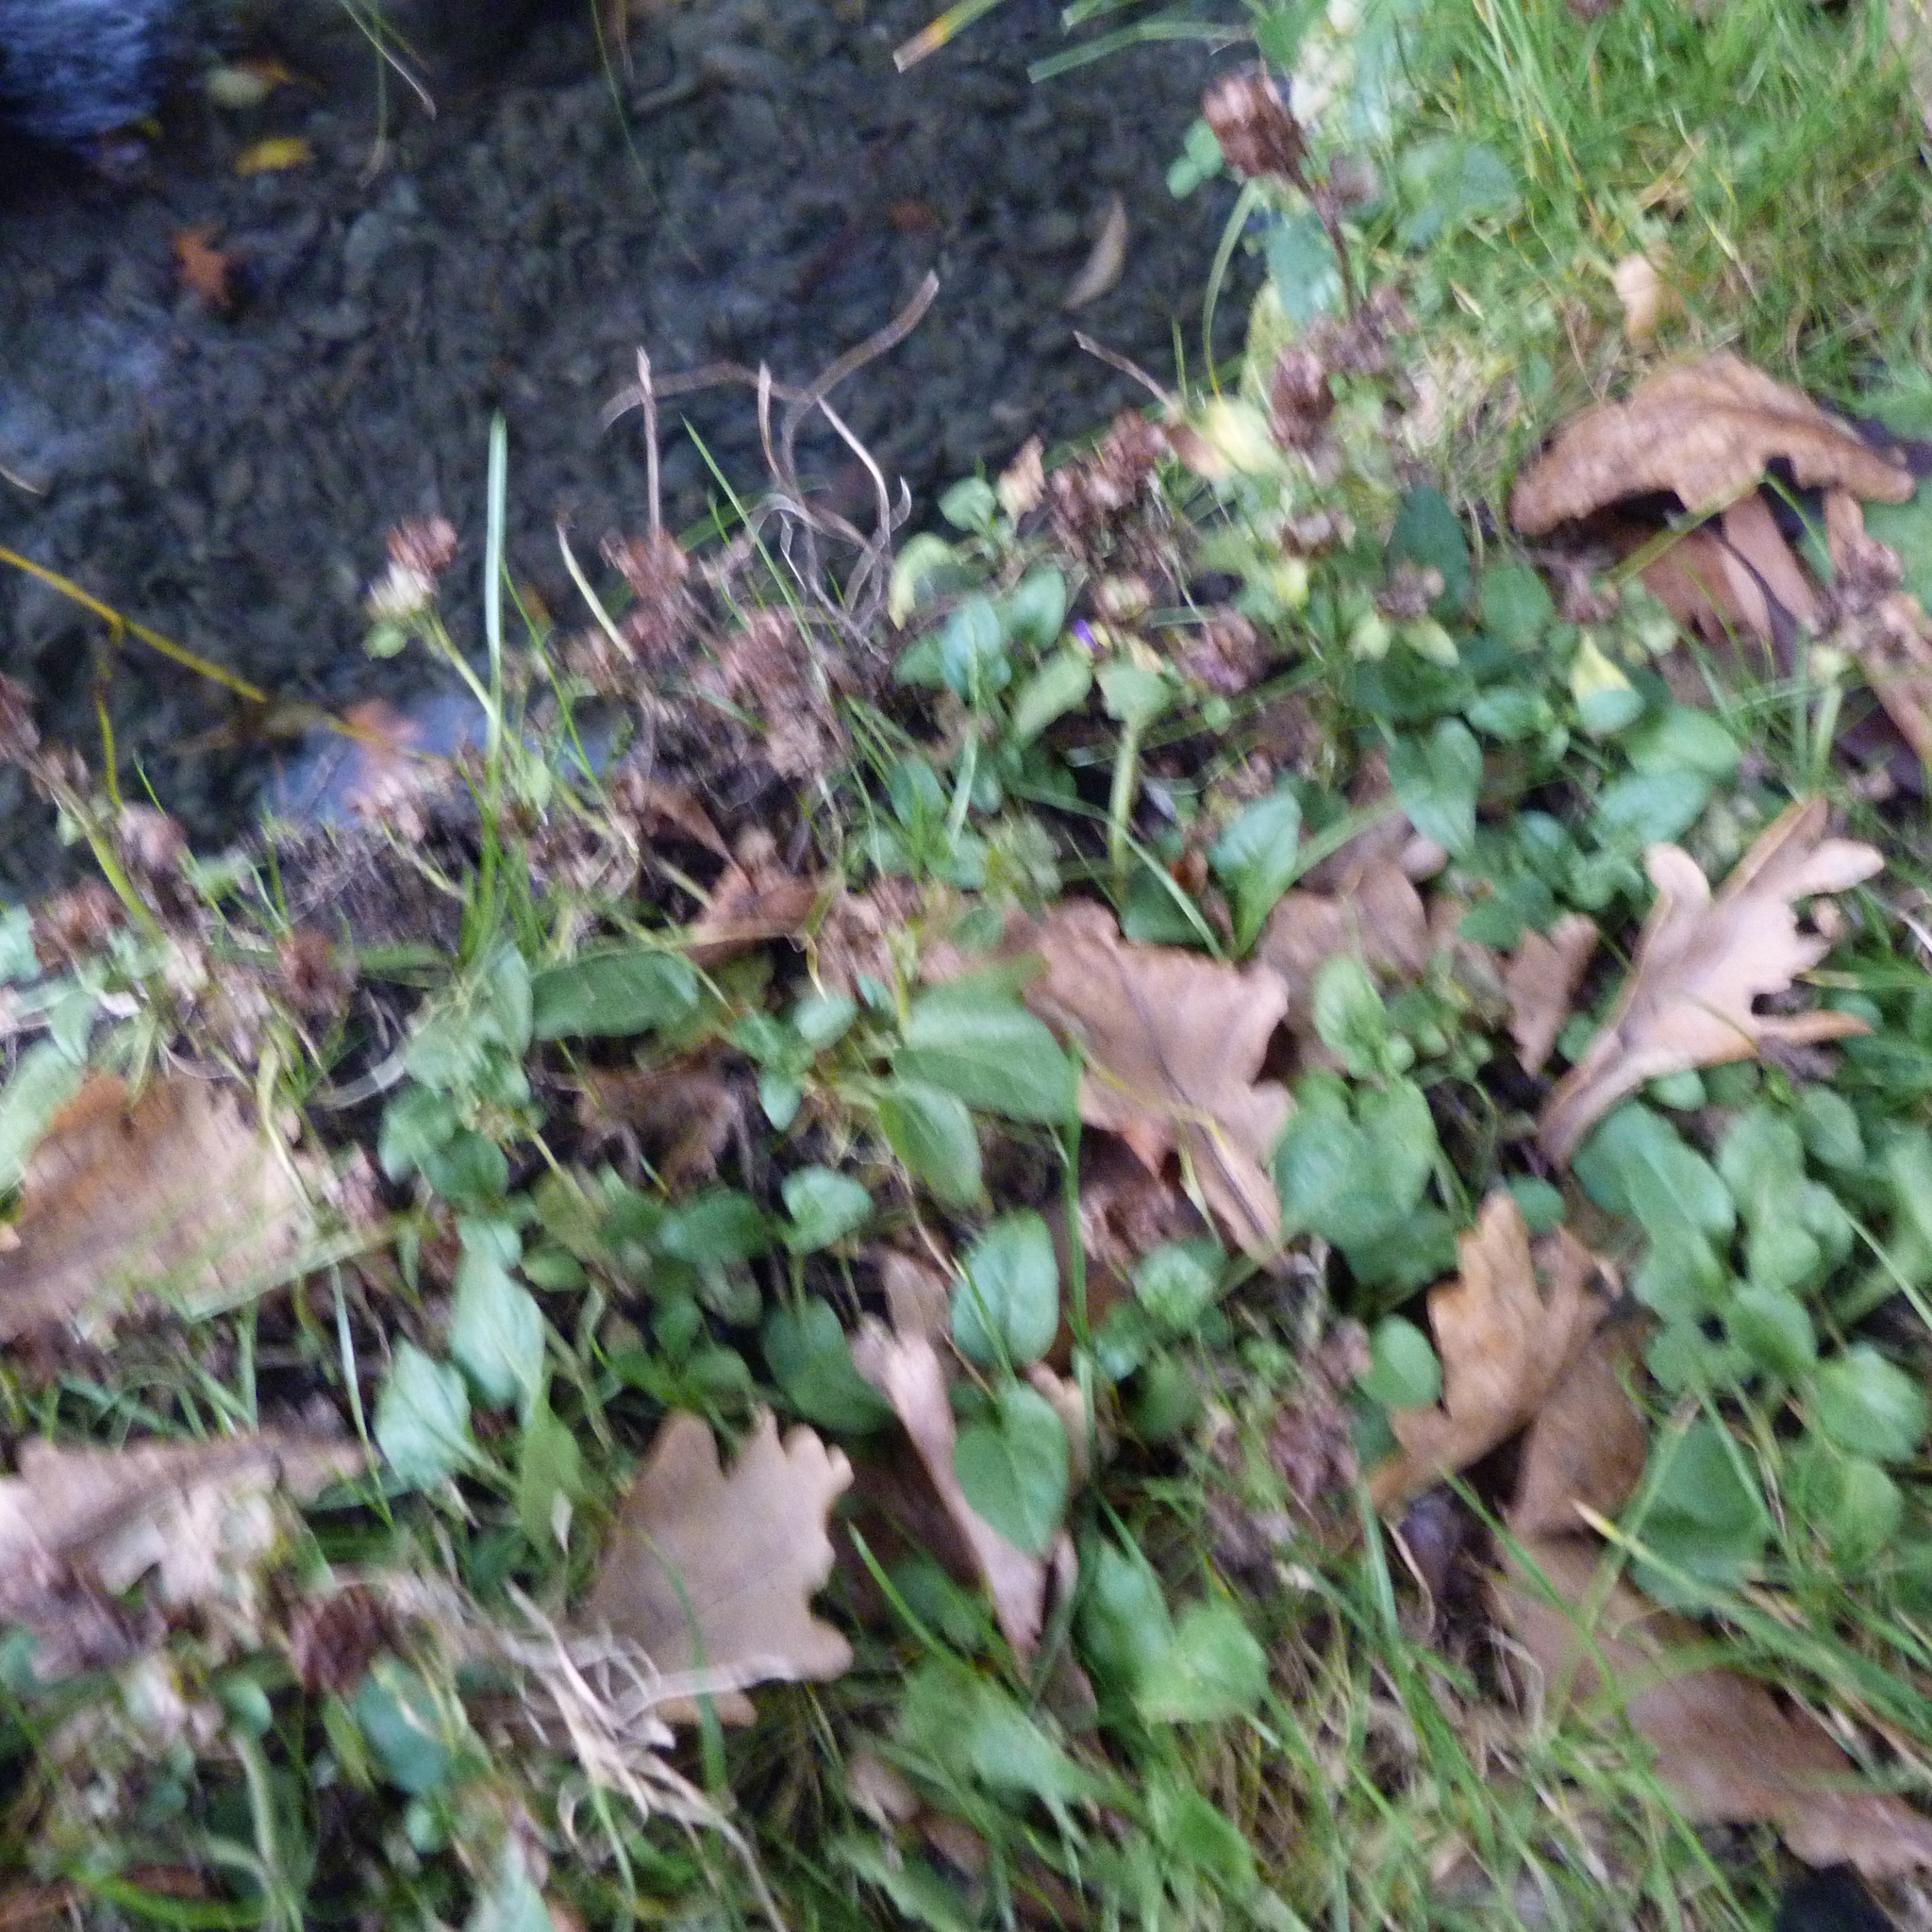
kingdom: Plantae
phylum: Tracheophyta
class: Magnoliopsida
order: Lamiales
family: Lamiaceae
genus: Prunella
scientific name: Prunella vulgaris
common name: Heal-all
